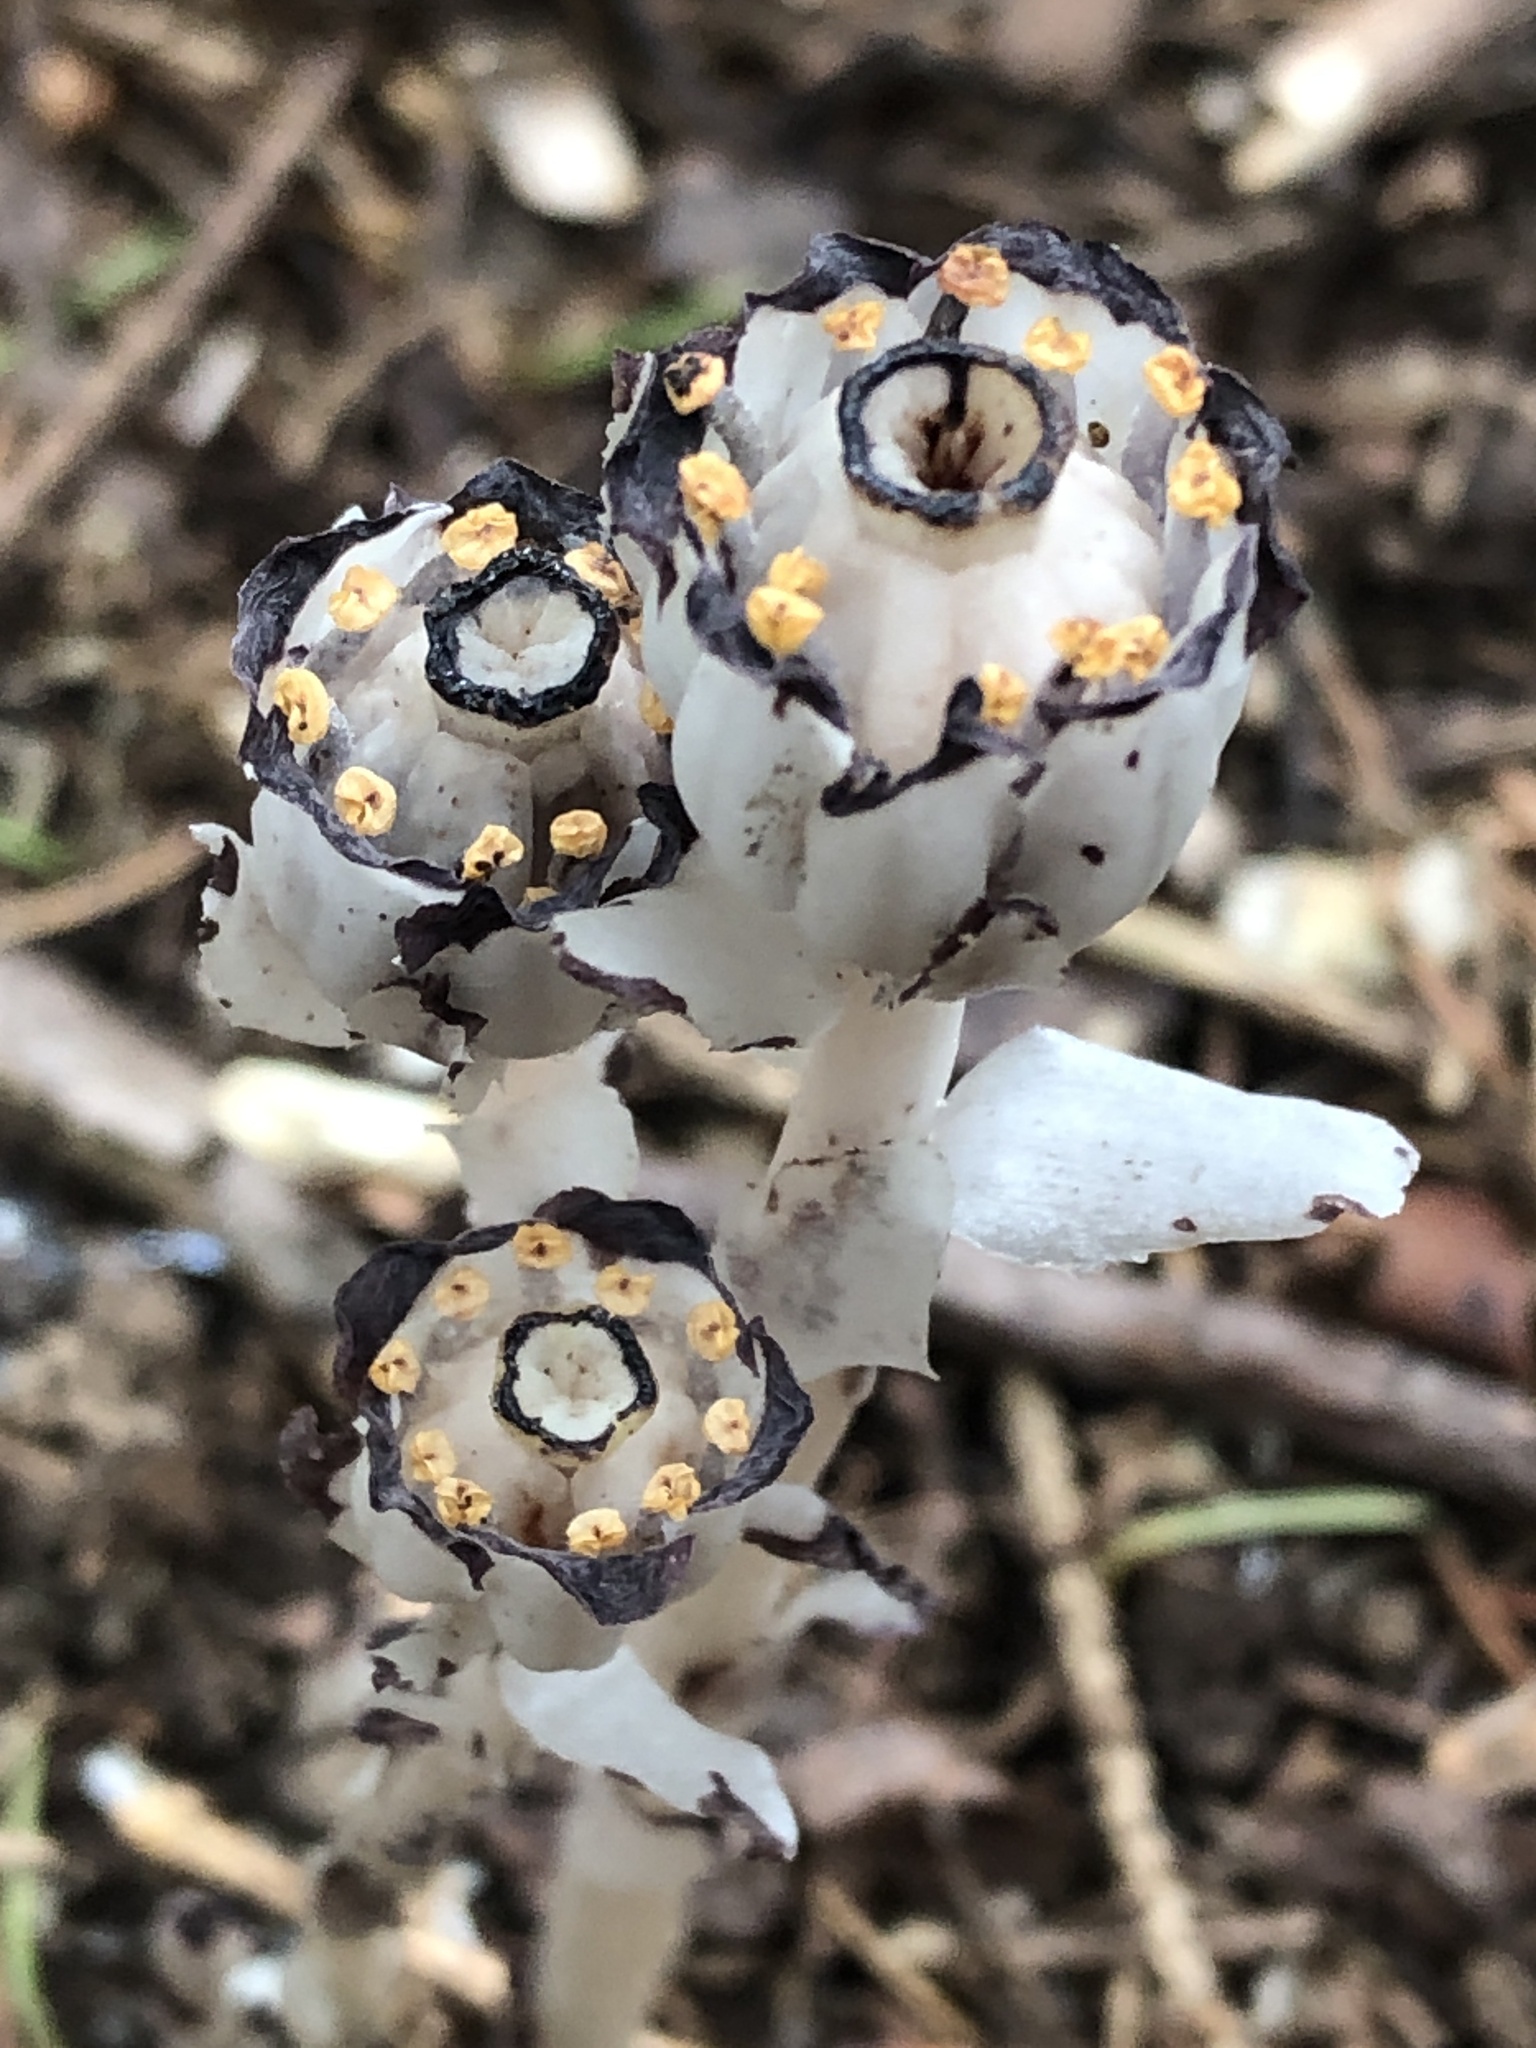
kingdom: Plantae
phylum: Tracheophyta
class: Magnoliopsida
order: Ericales
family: Ericaceae
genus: Monotropa
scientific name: Monotropa uniflora
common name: Convulsion root
